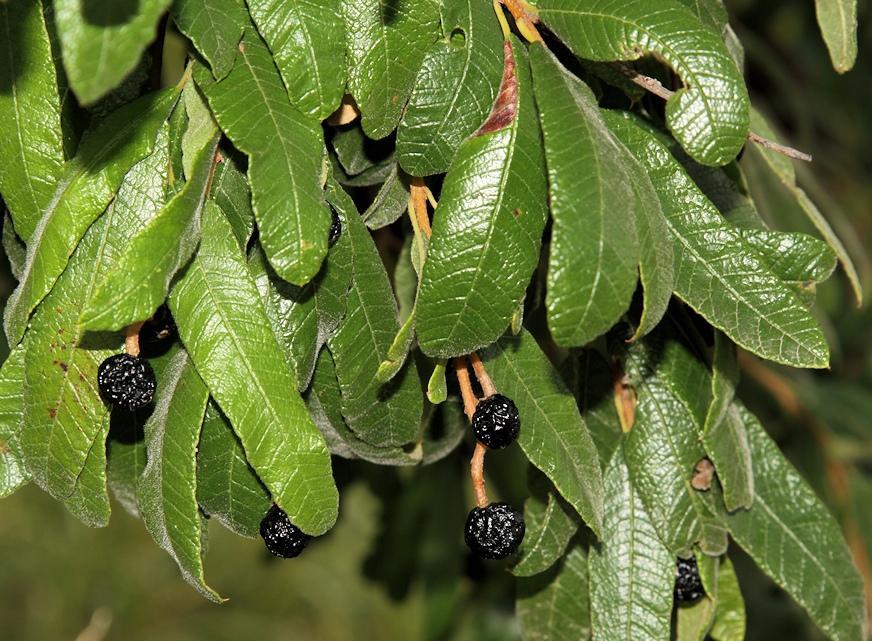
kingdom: Plantae
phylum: Tracheophyta
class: Magnoliopsida
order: Sapindales
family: Anacardiaceae
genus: Ozoroa
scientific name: Ozoroa sphaerocarpa
